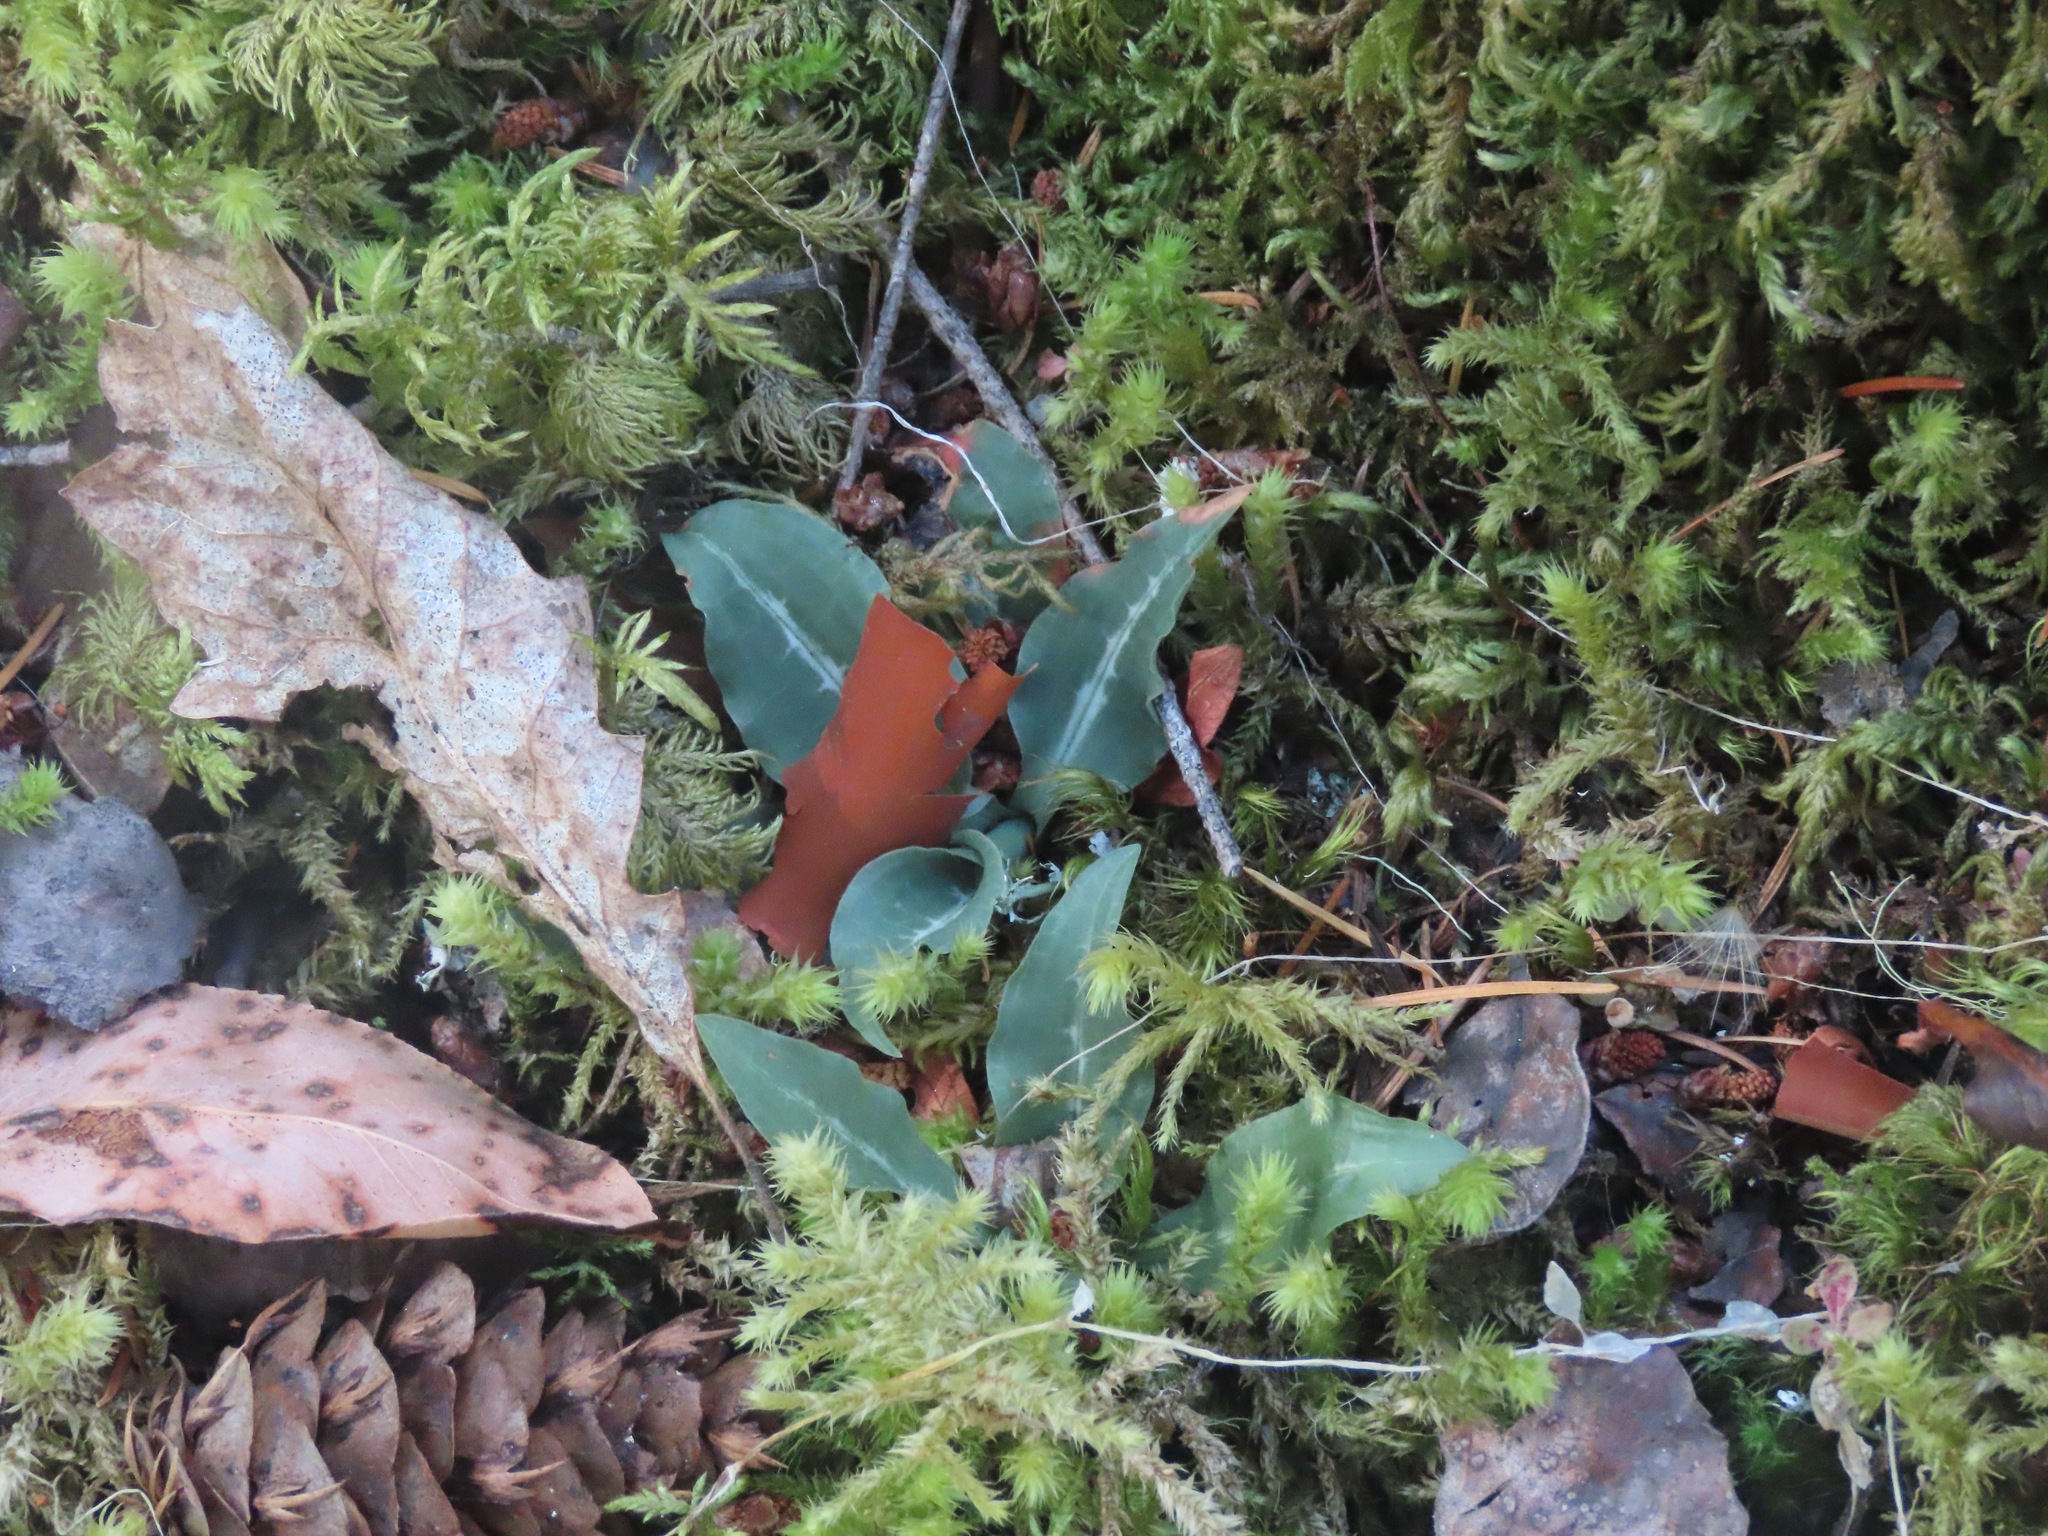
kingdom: Plantae
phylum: Tracheophyta
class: Liliopsida
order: Asparagales
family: Orchidaceae
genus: Goodyera
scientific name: Goodyera oblongifolia
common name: Giant rattlesnake-plantain
